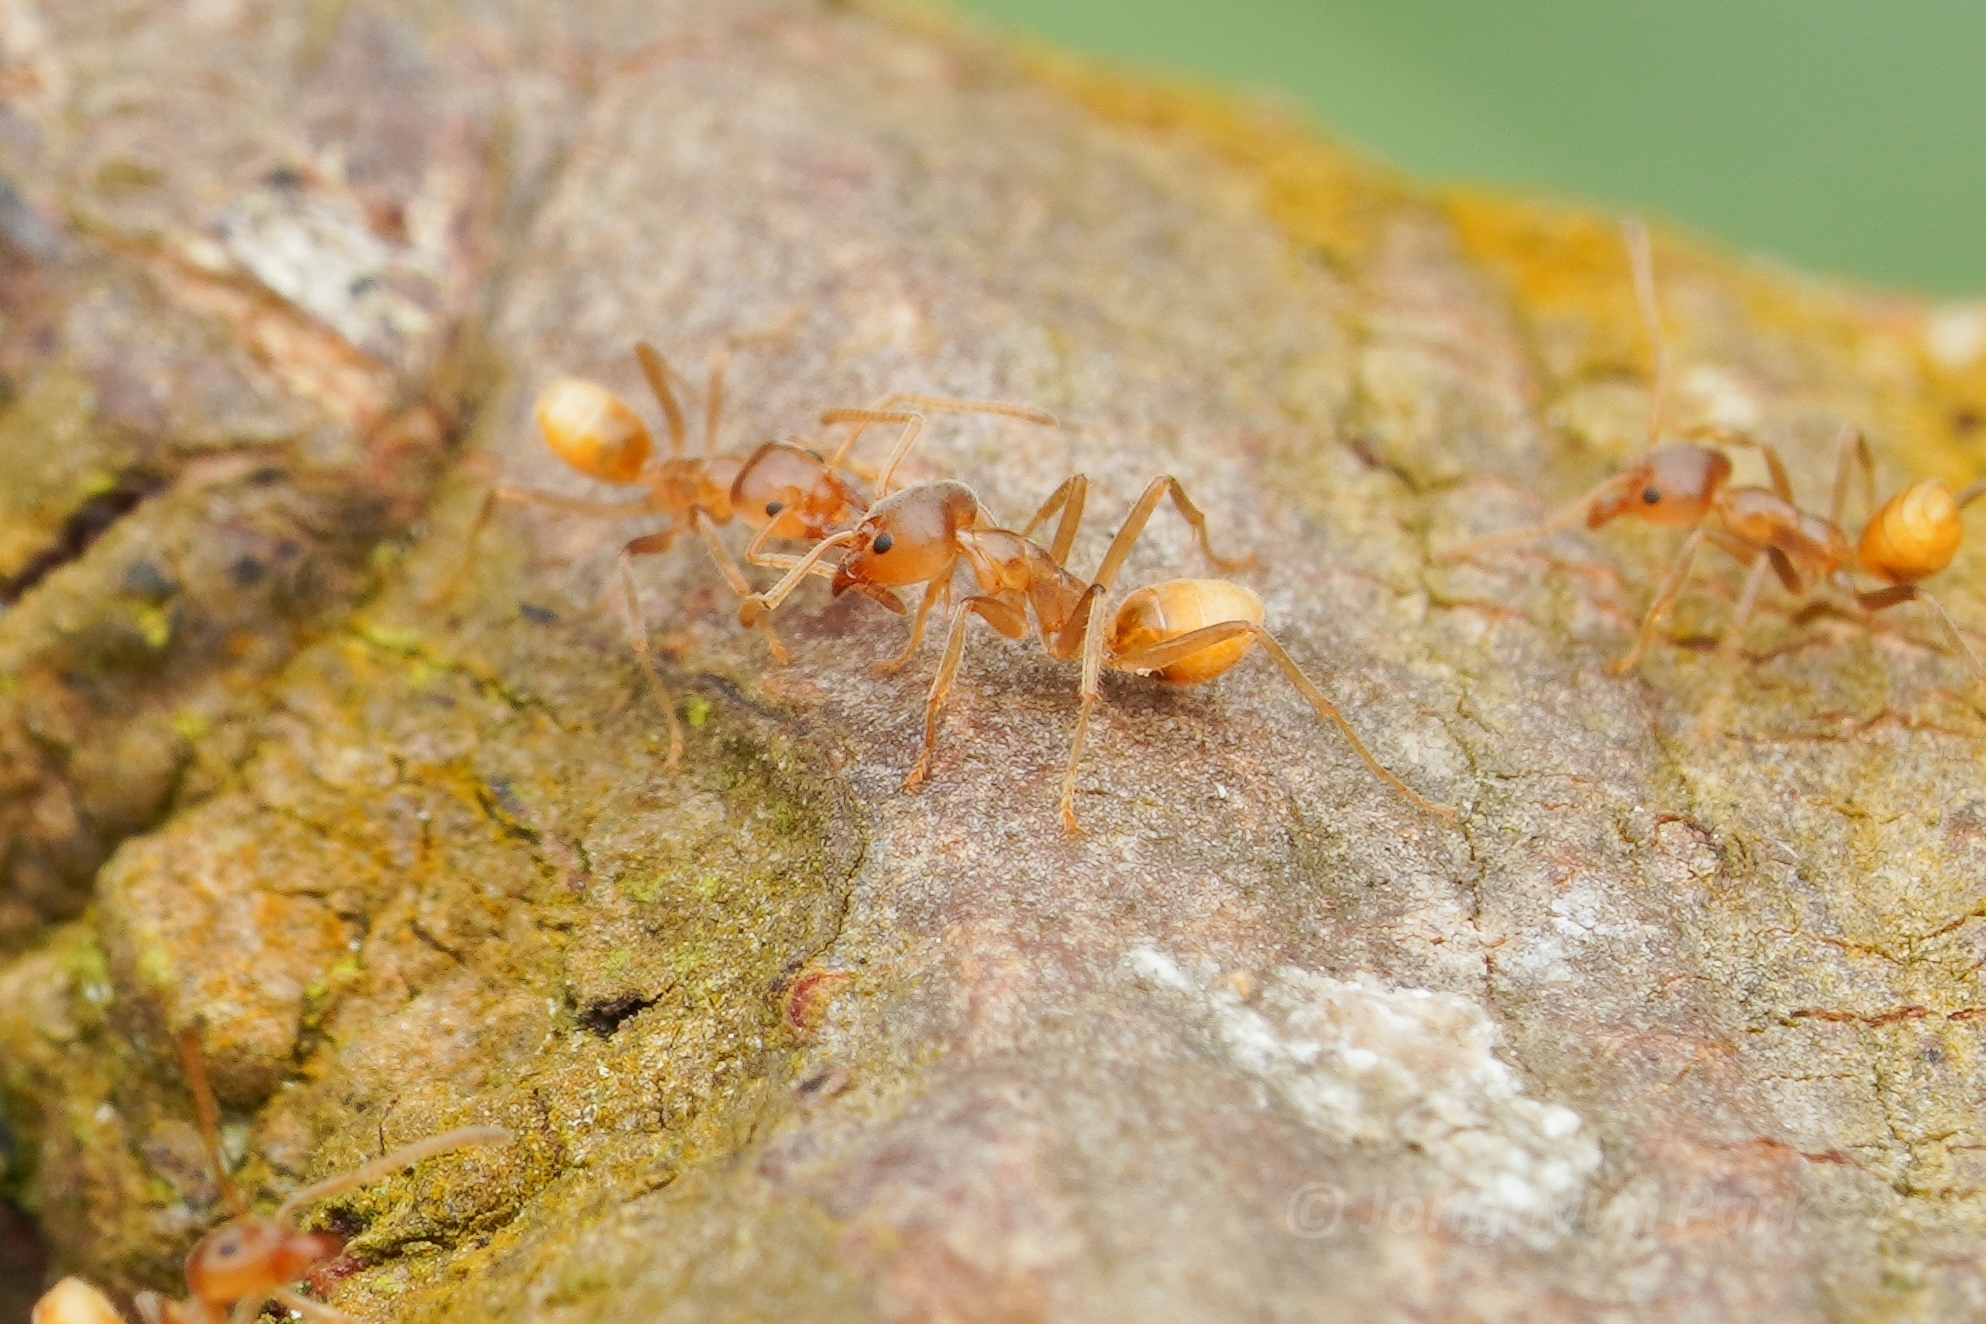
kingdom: Animalia
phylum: Arthropoda
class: Insecta
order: Hymenoptera
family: Formicidae
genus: Azteca
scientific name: Azteca delpini
